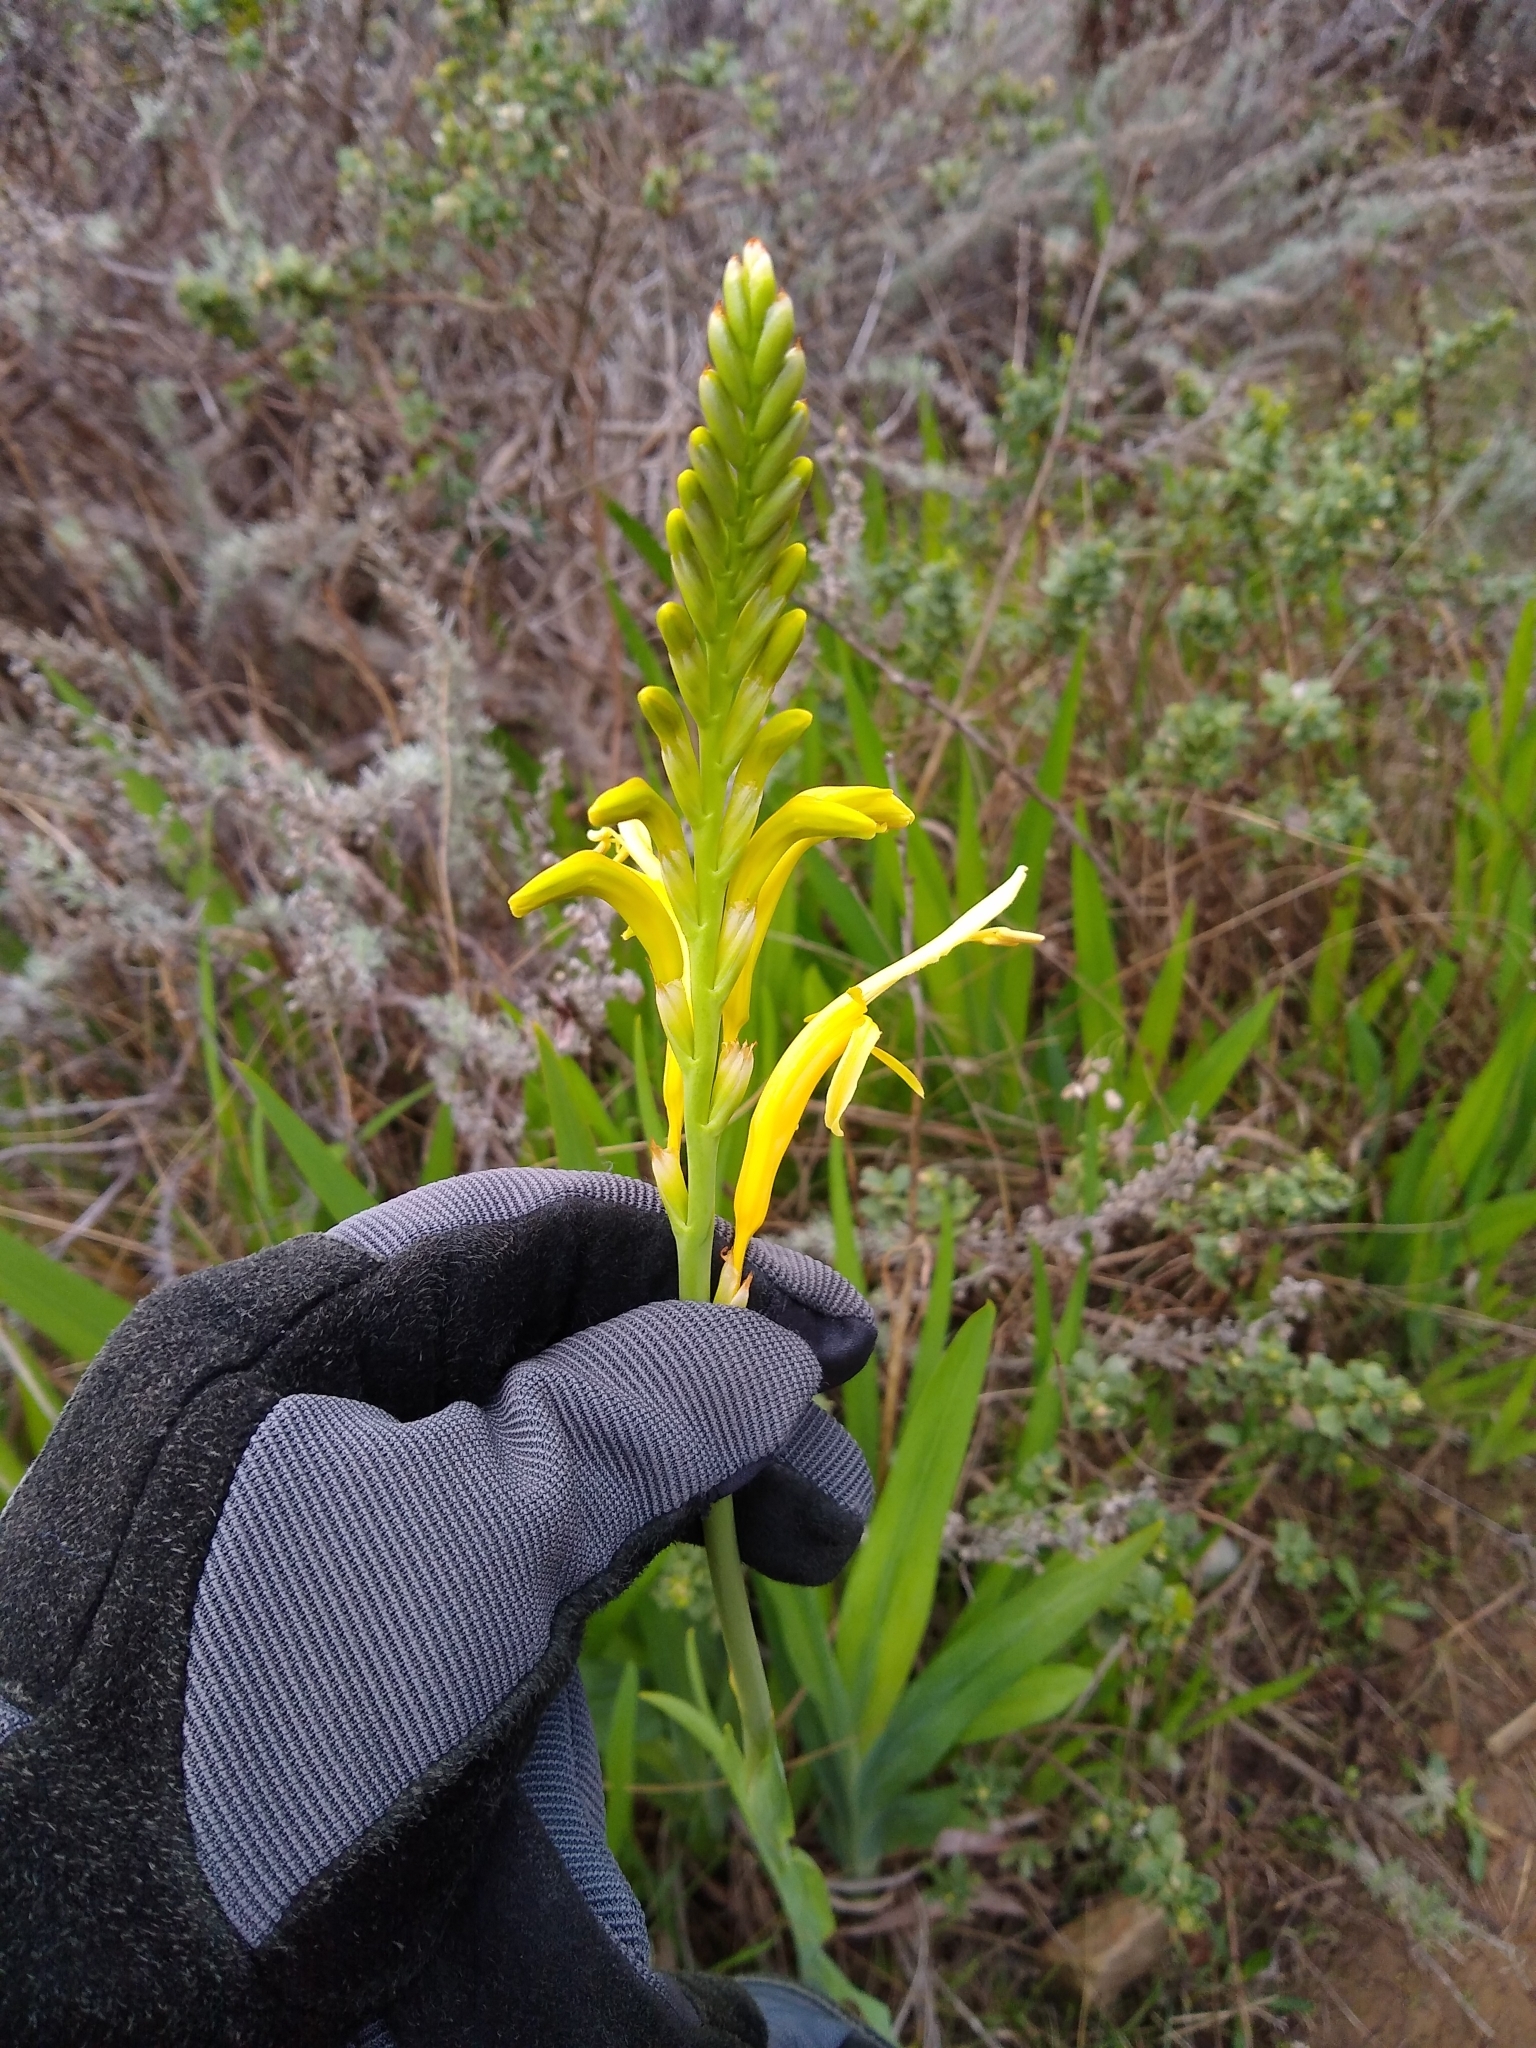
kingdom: Plantae
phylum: Tracheophyta
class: Liliopsida
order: Asparagales
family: Iridaceae
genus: Chasmanthe
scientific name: Chasmanthe floribunda
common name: African cornflag
